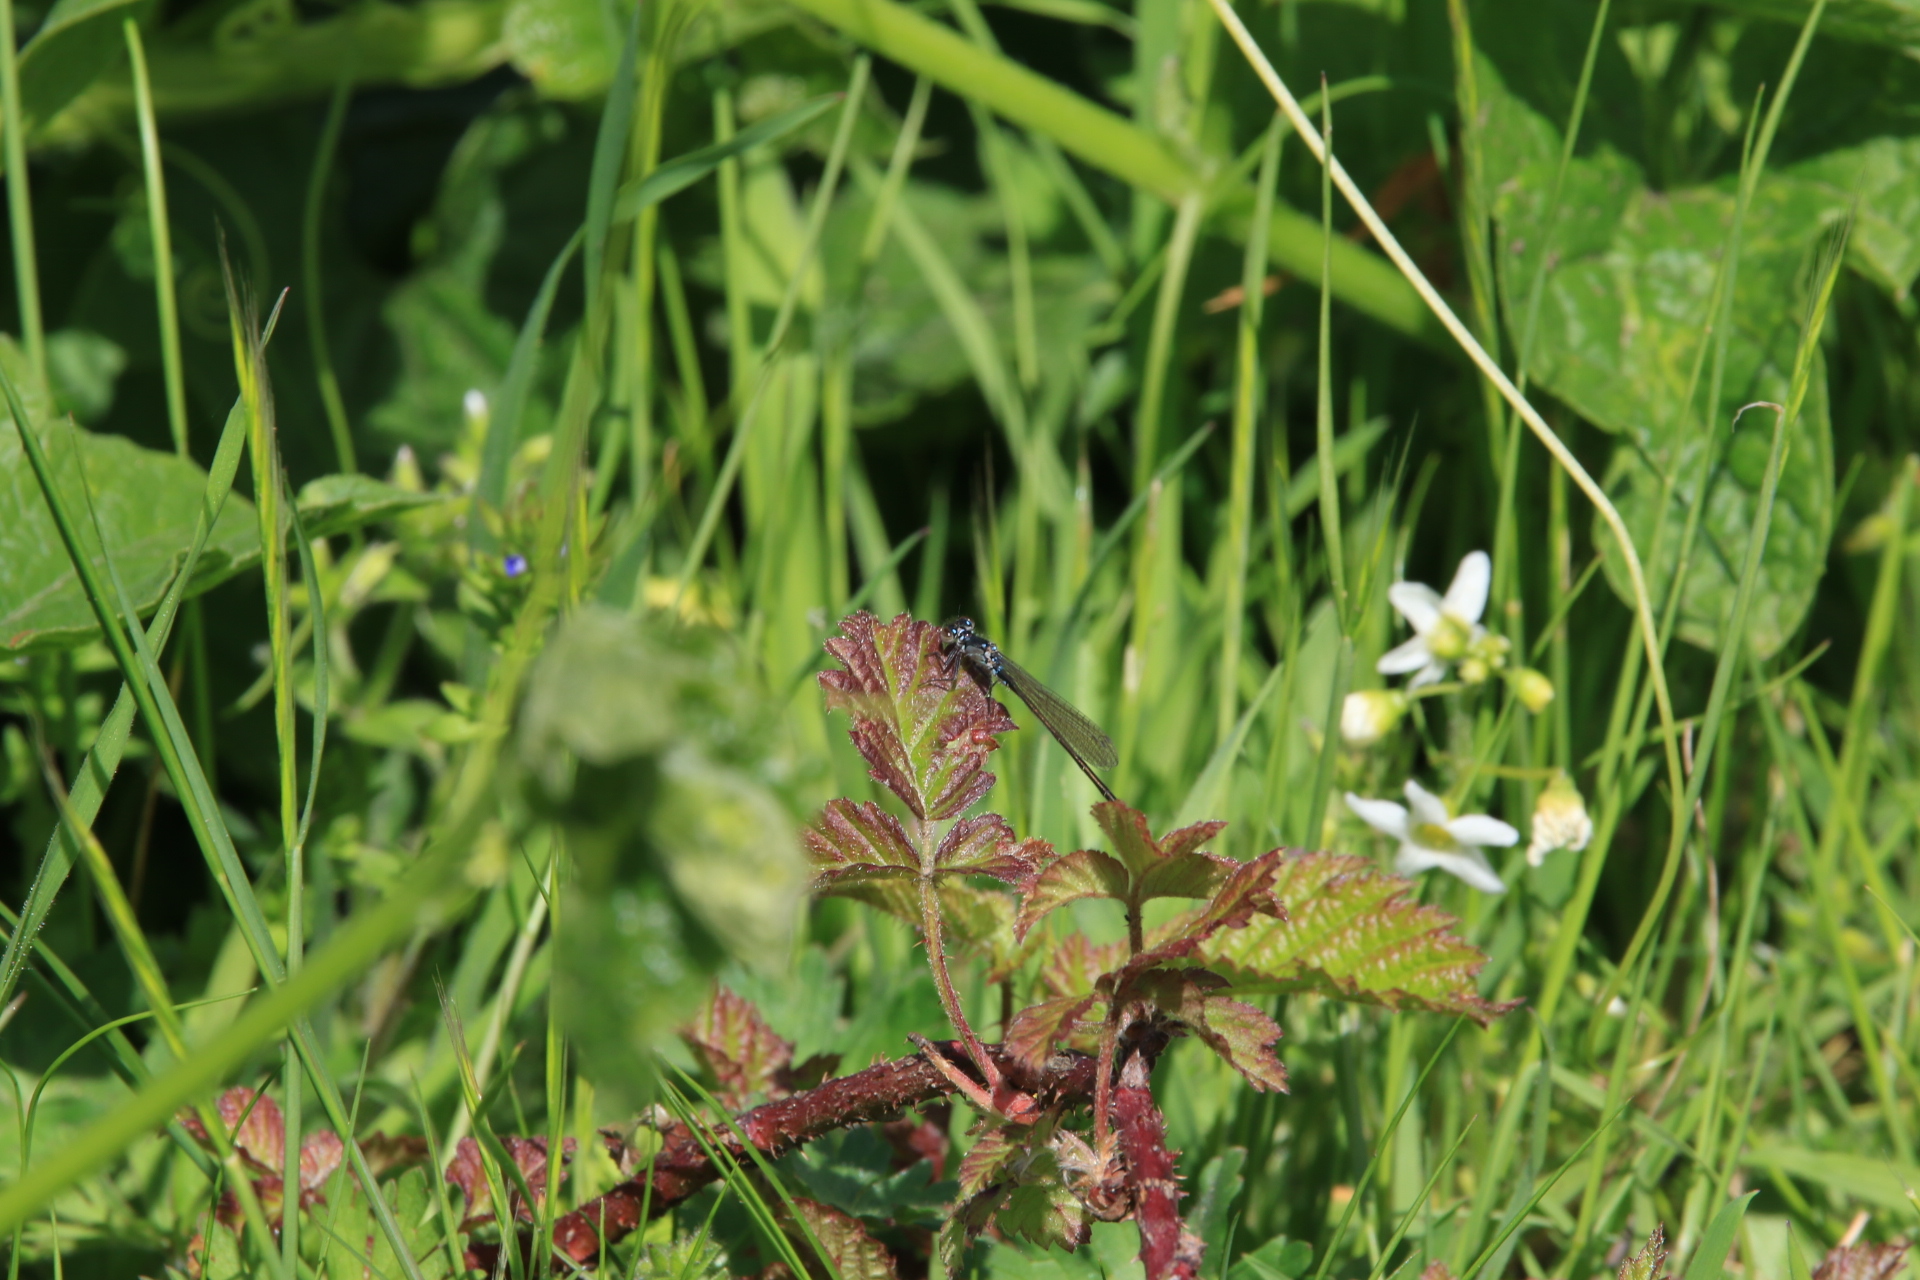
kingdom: Animalia
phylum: Arthropoda
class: Insecta
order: Odonata
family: Coenagrionidae
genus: Ischnura
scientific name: Ischnura cervula
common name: Pacific forktail
